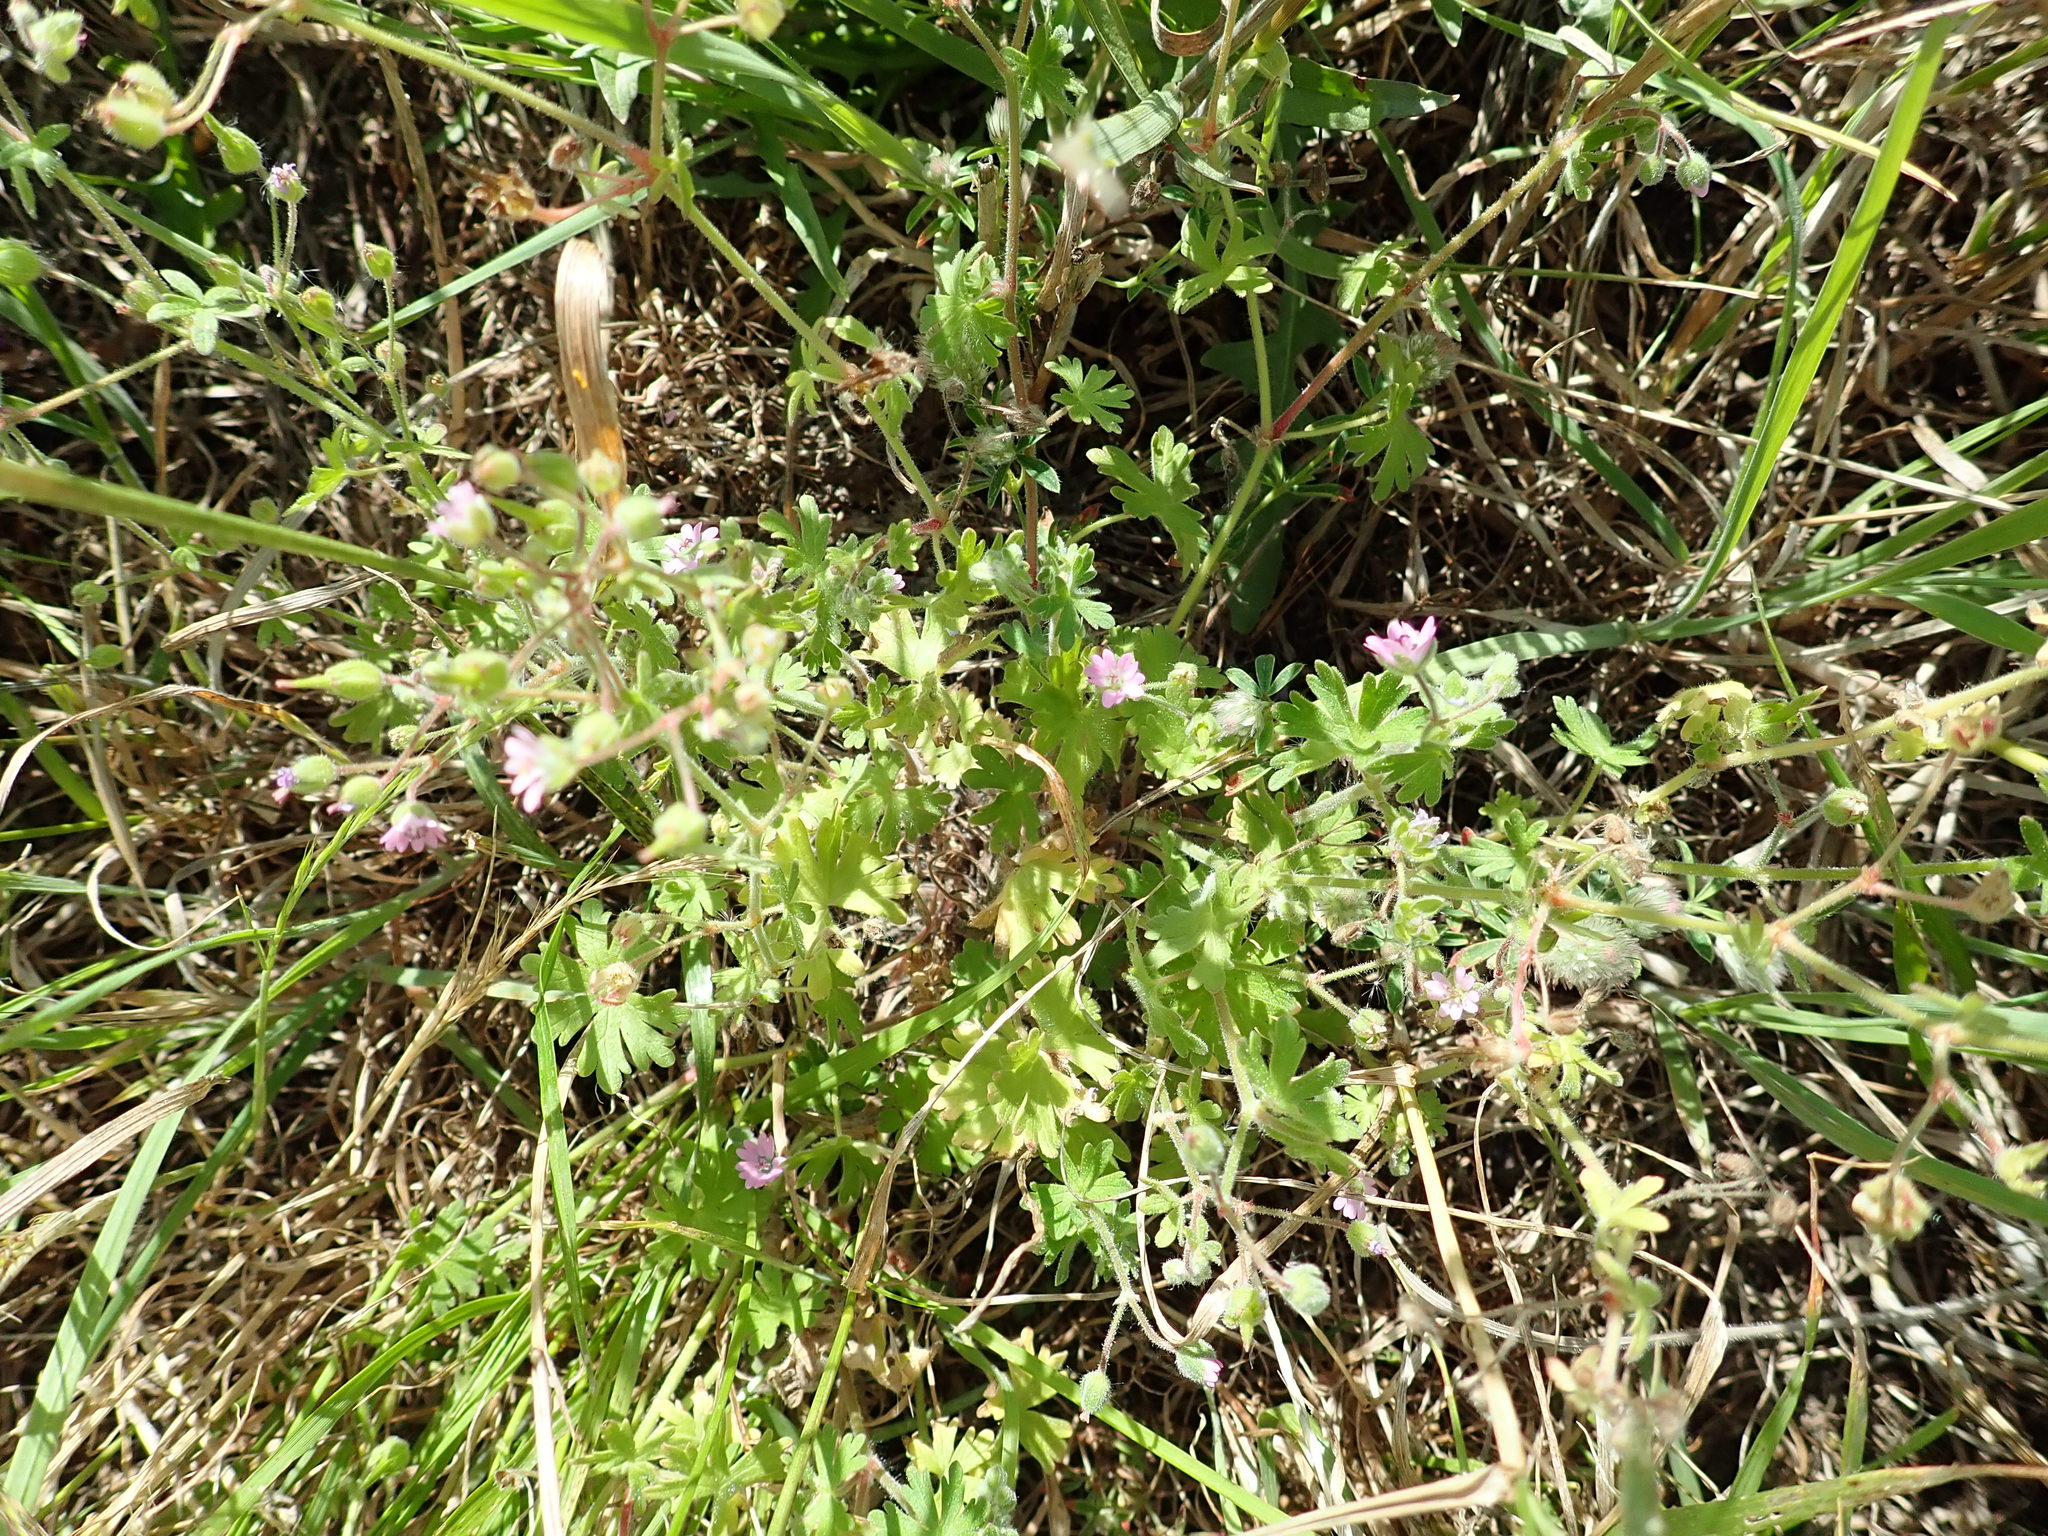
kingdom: Plantae
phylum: Tracheophyta
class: Magnoliopsida
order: Geraniales
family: Geraniaceae
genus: Geranium
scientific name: Geranium molle
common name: Dove's-foot crane's-bill
